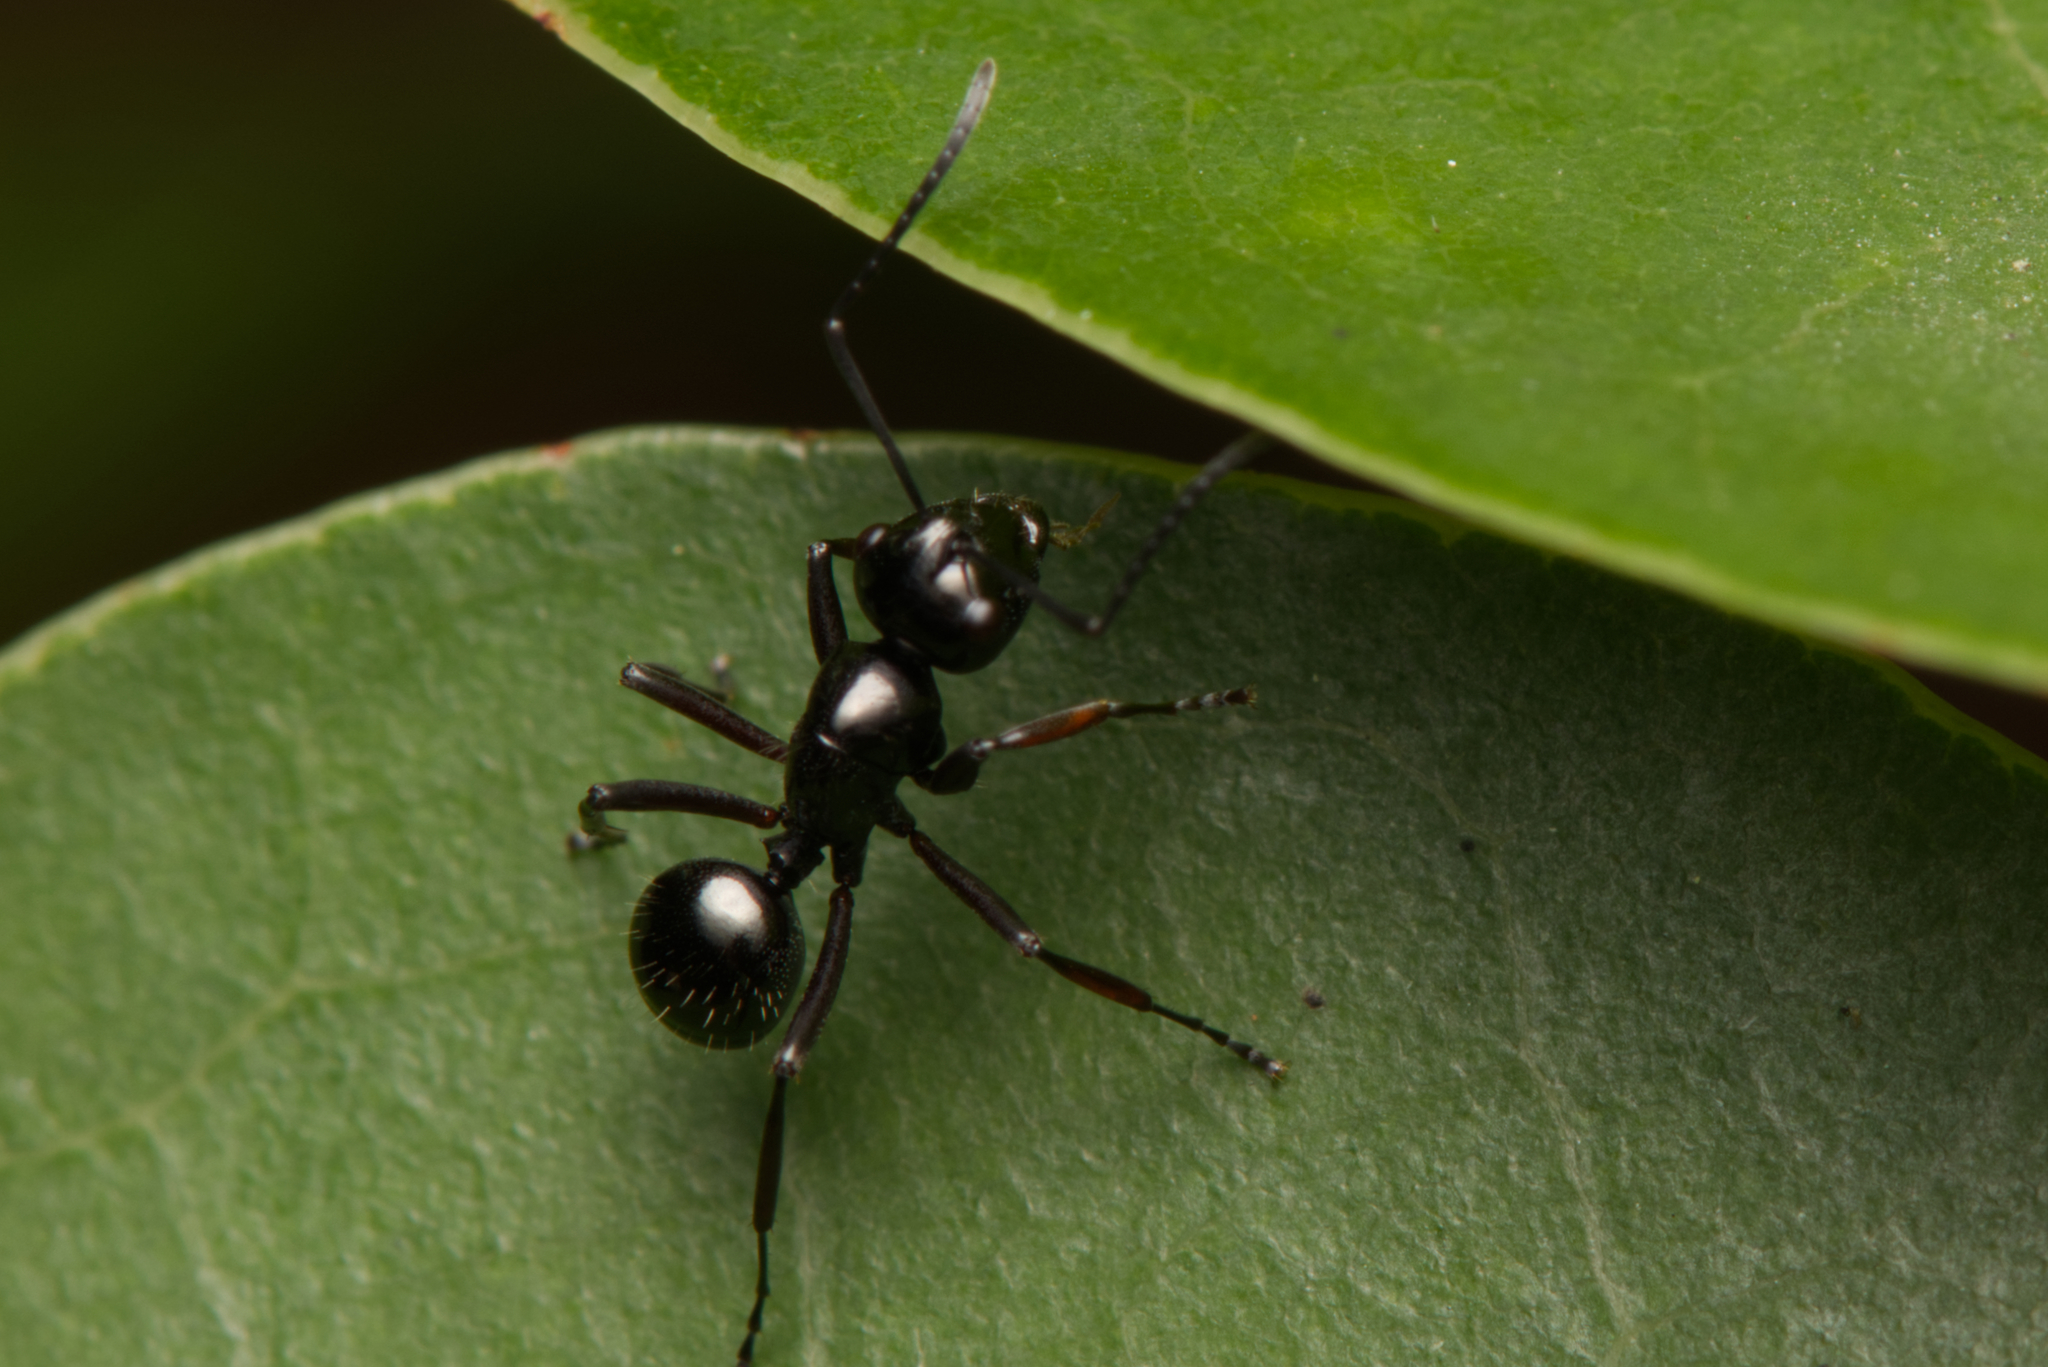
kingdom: Animalia
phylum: Arthropoda
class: Insecta
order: Hymenoptera
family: Formicidae
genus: Polyrhachis
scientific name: Polyrhachis pilosa
